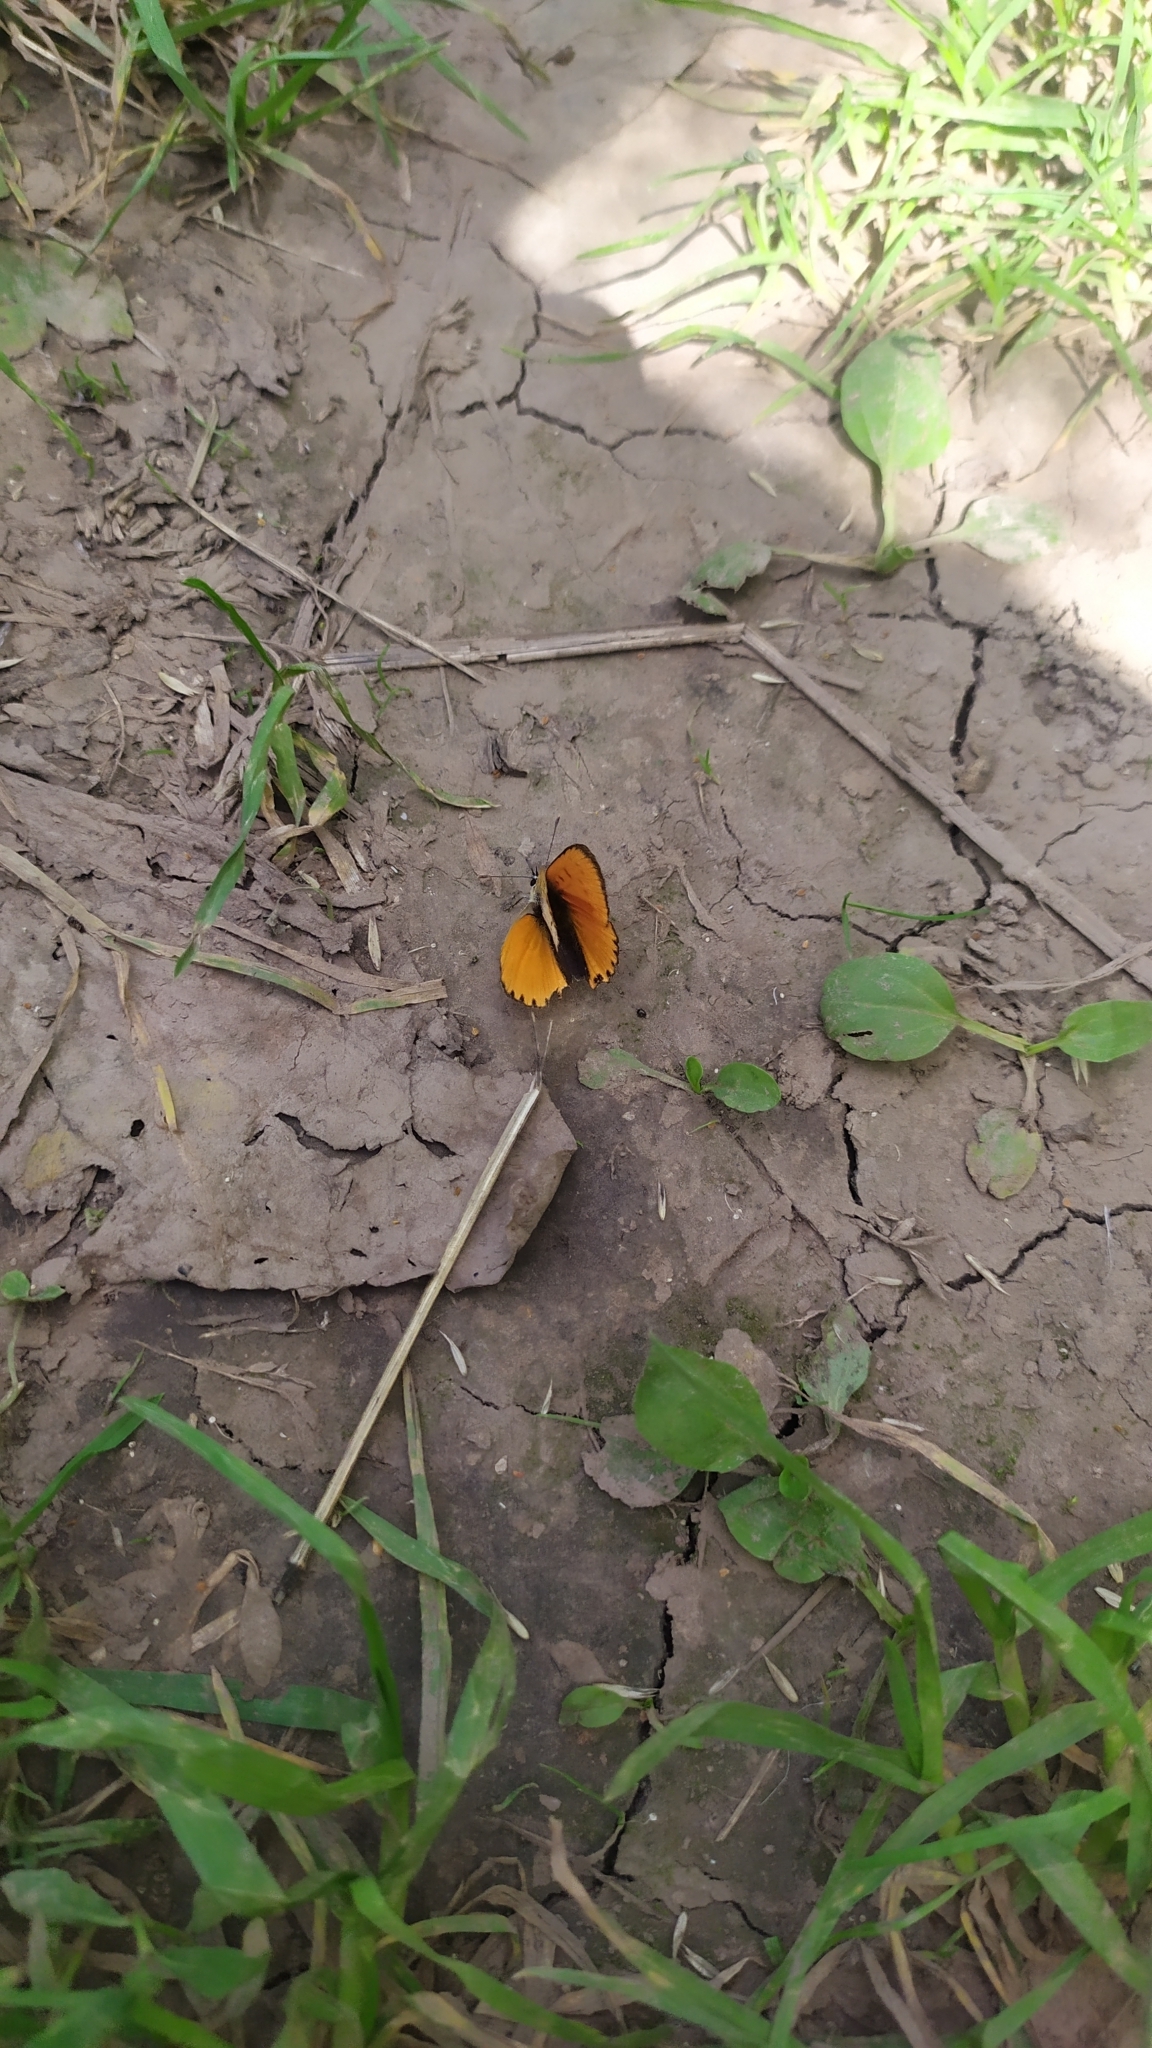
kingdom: Animalia
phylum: Arthropoda
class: Insecta
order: Lepidoptera
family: Lycaenidae
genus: Lycaena
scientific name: Lycaena virgaureae
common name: Scarce copper
